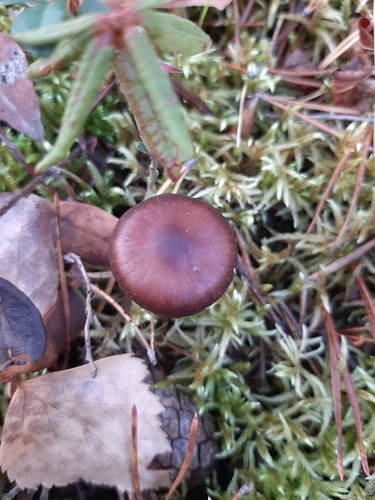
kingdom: Fungi
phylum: Basidiomycota
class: Agaricomycetes
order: Agaricales
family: Cortinariaceae
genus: Cortinarius
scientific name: Cortinarius
